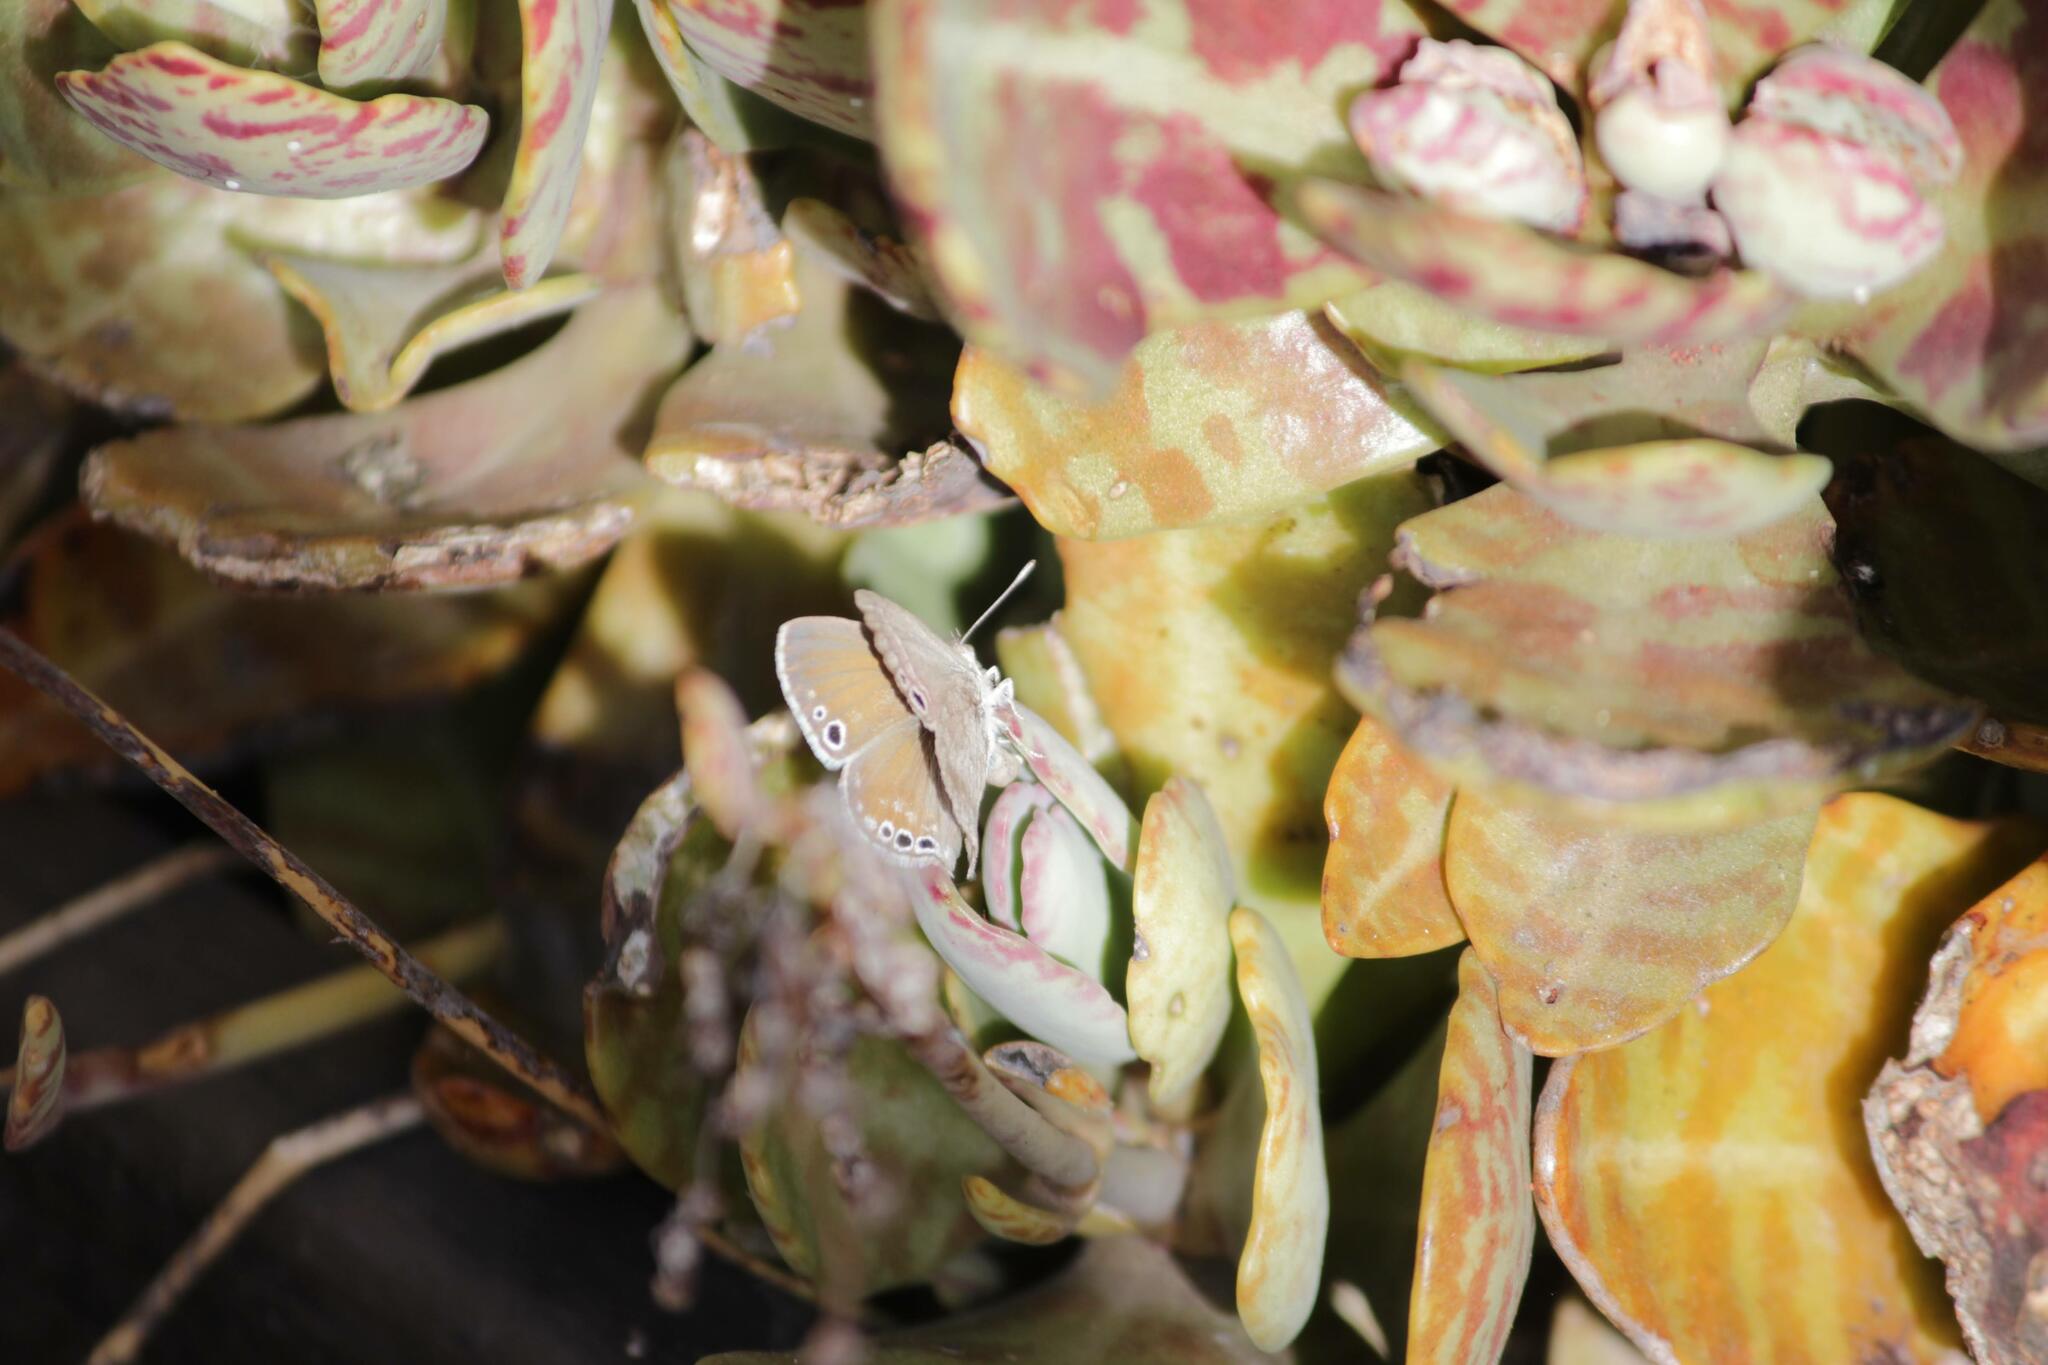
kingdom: Animalia
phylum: Arthropoda
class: Insecta
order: Lepidoptera
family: Lycaenidae
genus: Leptomyrina
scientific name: Leptomyrina gorgias
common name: Common black-eye
